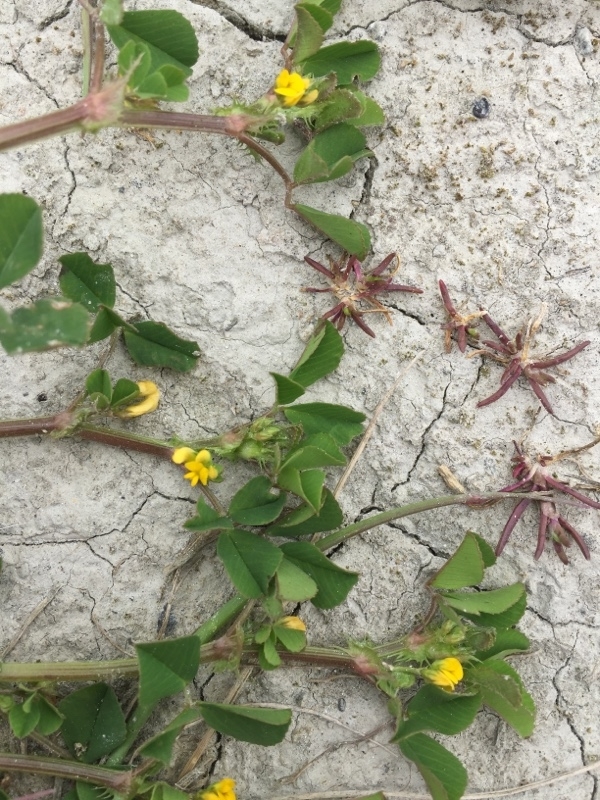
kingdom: Plantae
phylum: Tracheophyta
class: Magnoliopsida
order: Fabales
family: Fabaceae
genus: Medicago
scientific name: Medicago polymorpha
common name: Burclover
